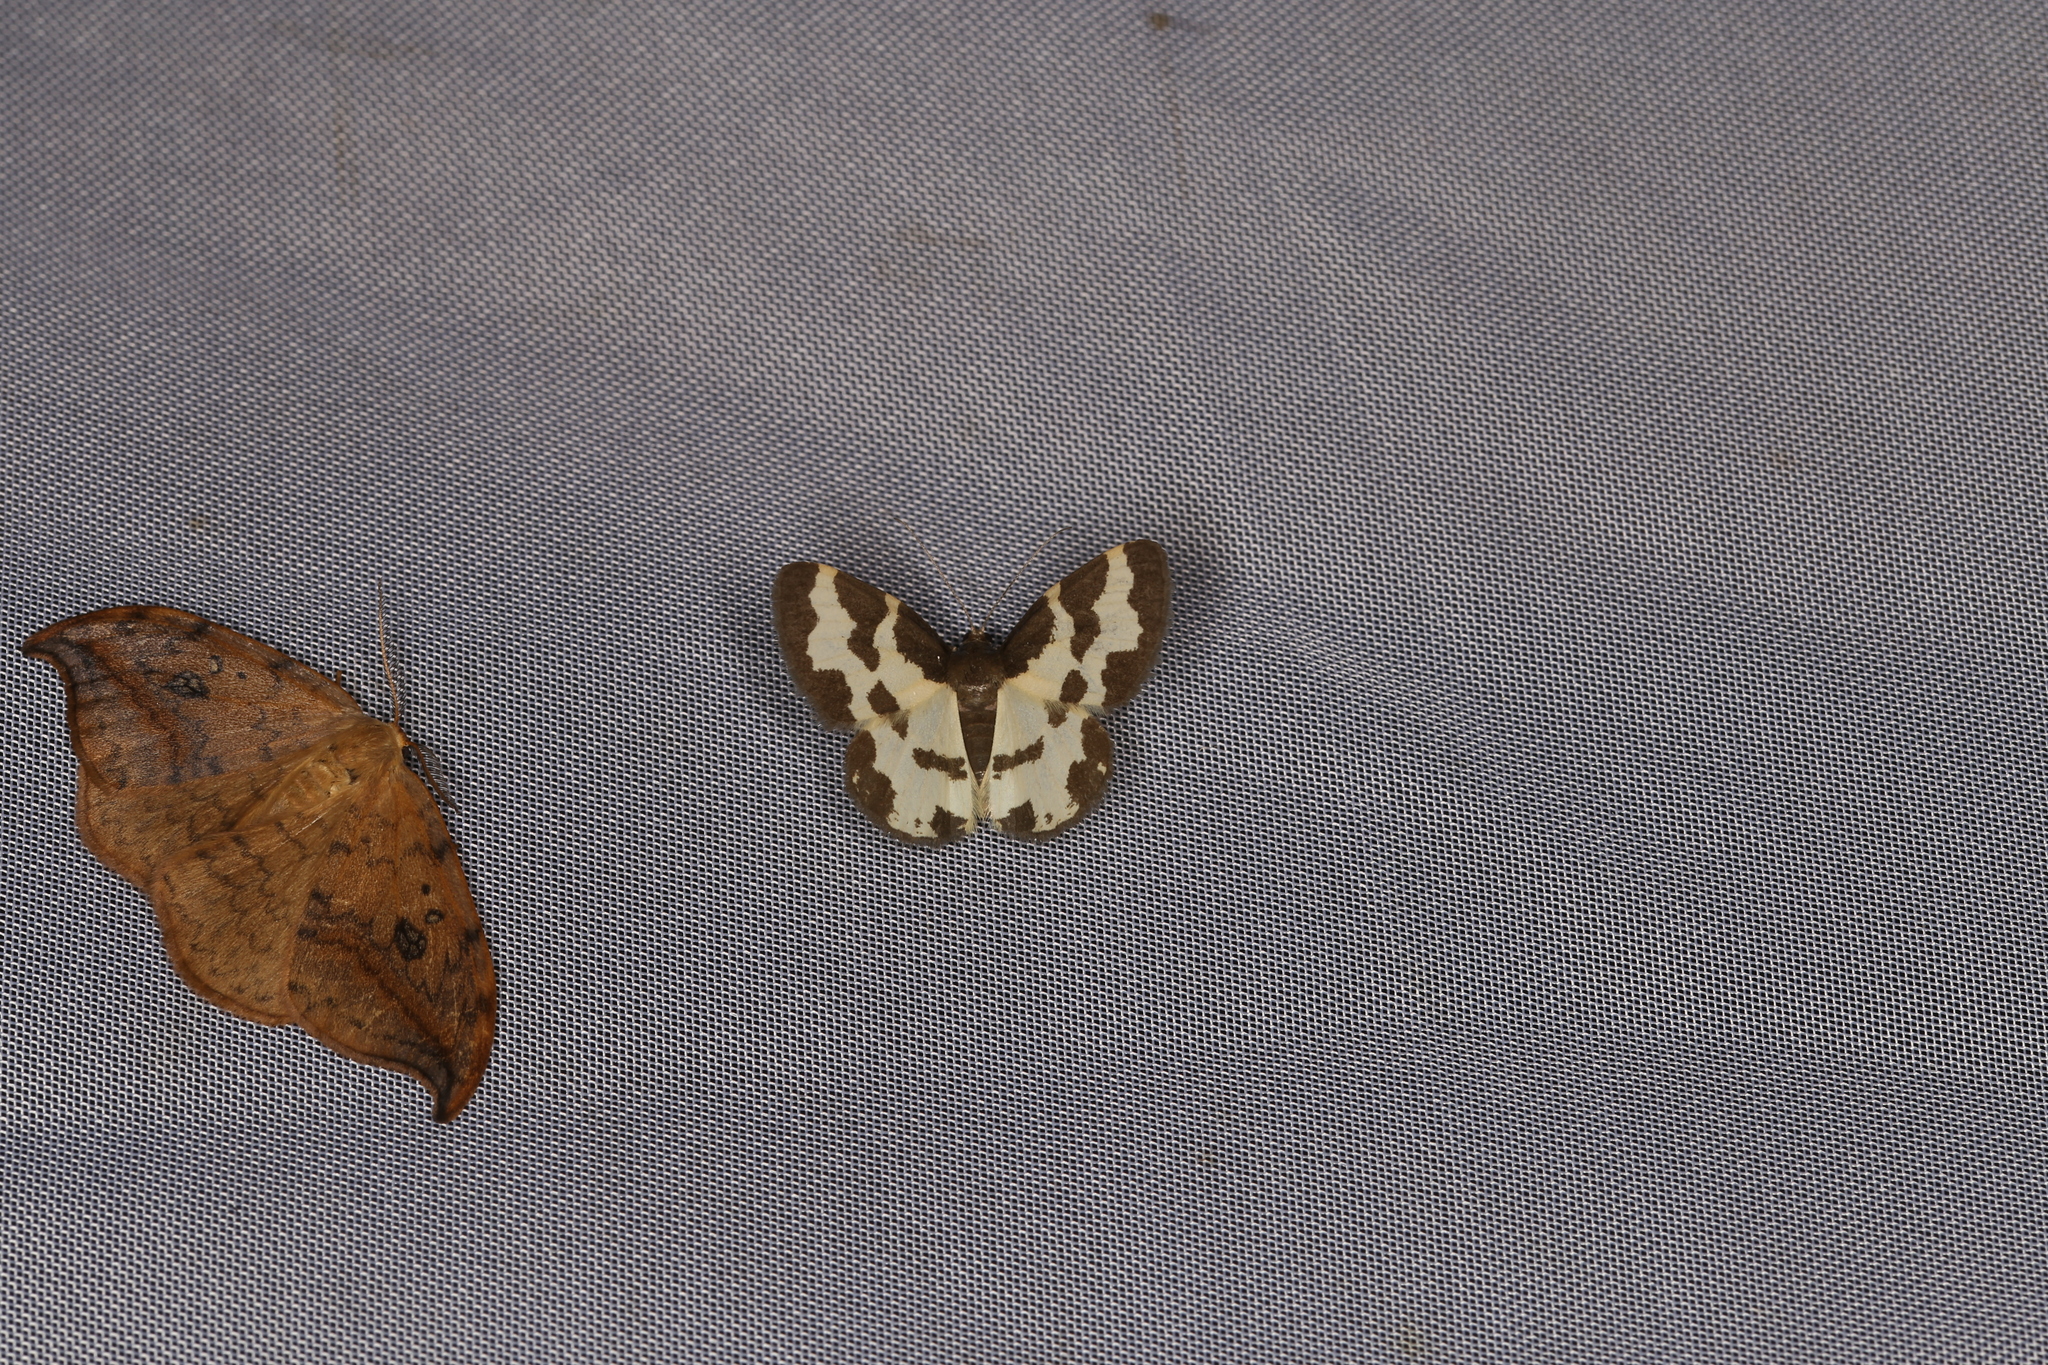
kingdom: Animalia
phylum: Arthropoda
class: Insecta
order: Lepidoptera
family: Geometridae
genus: Lomaspilis
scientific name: Lomaspilis marginata
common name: Clouded border
